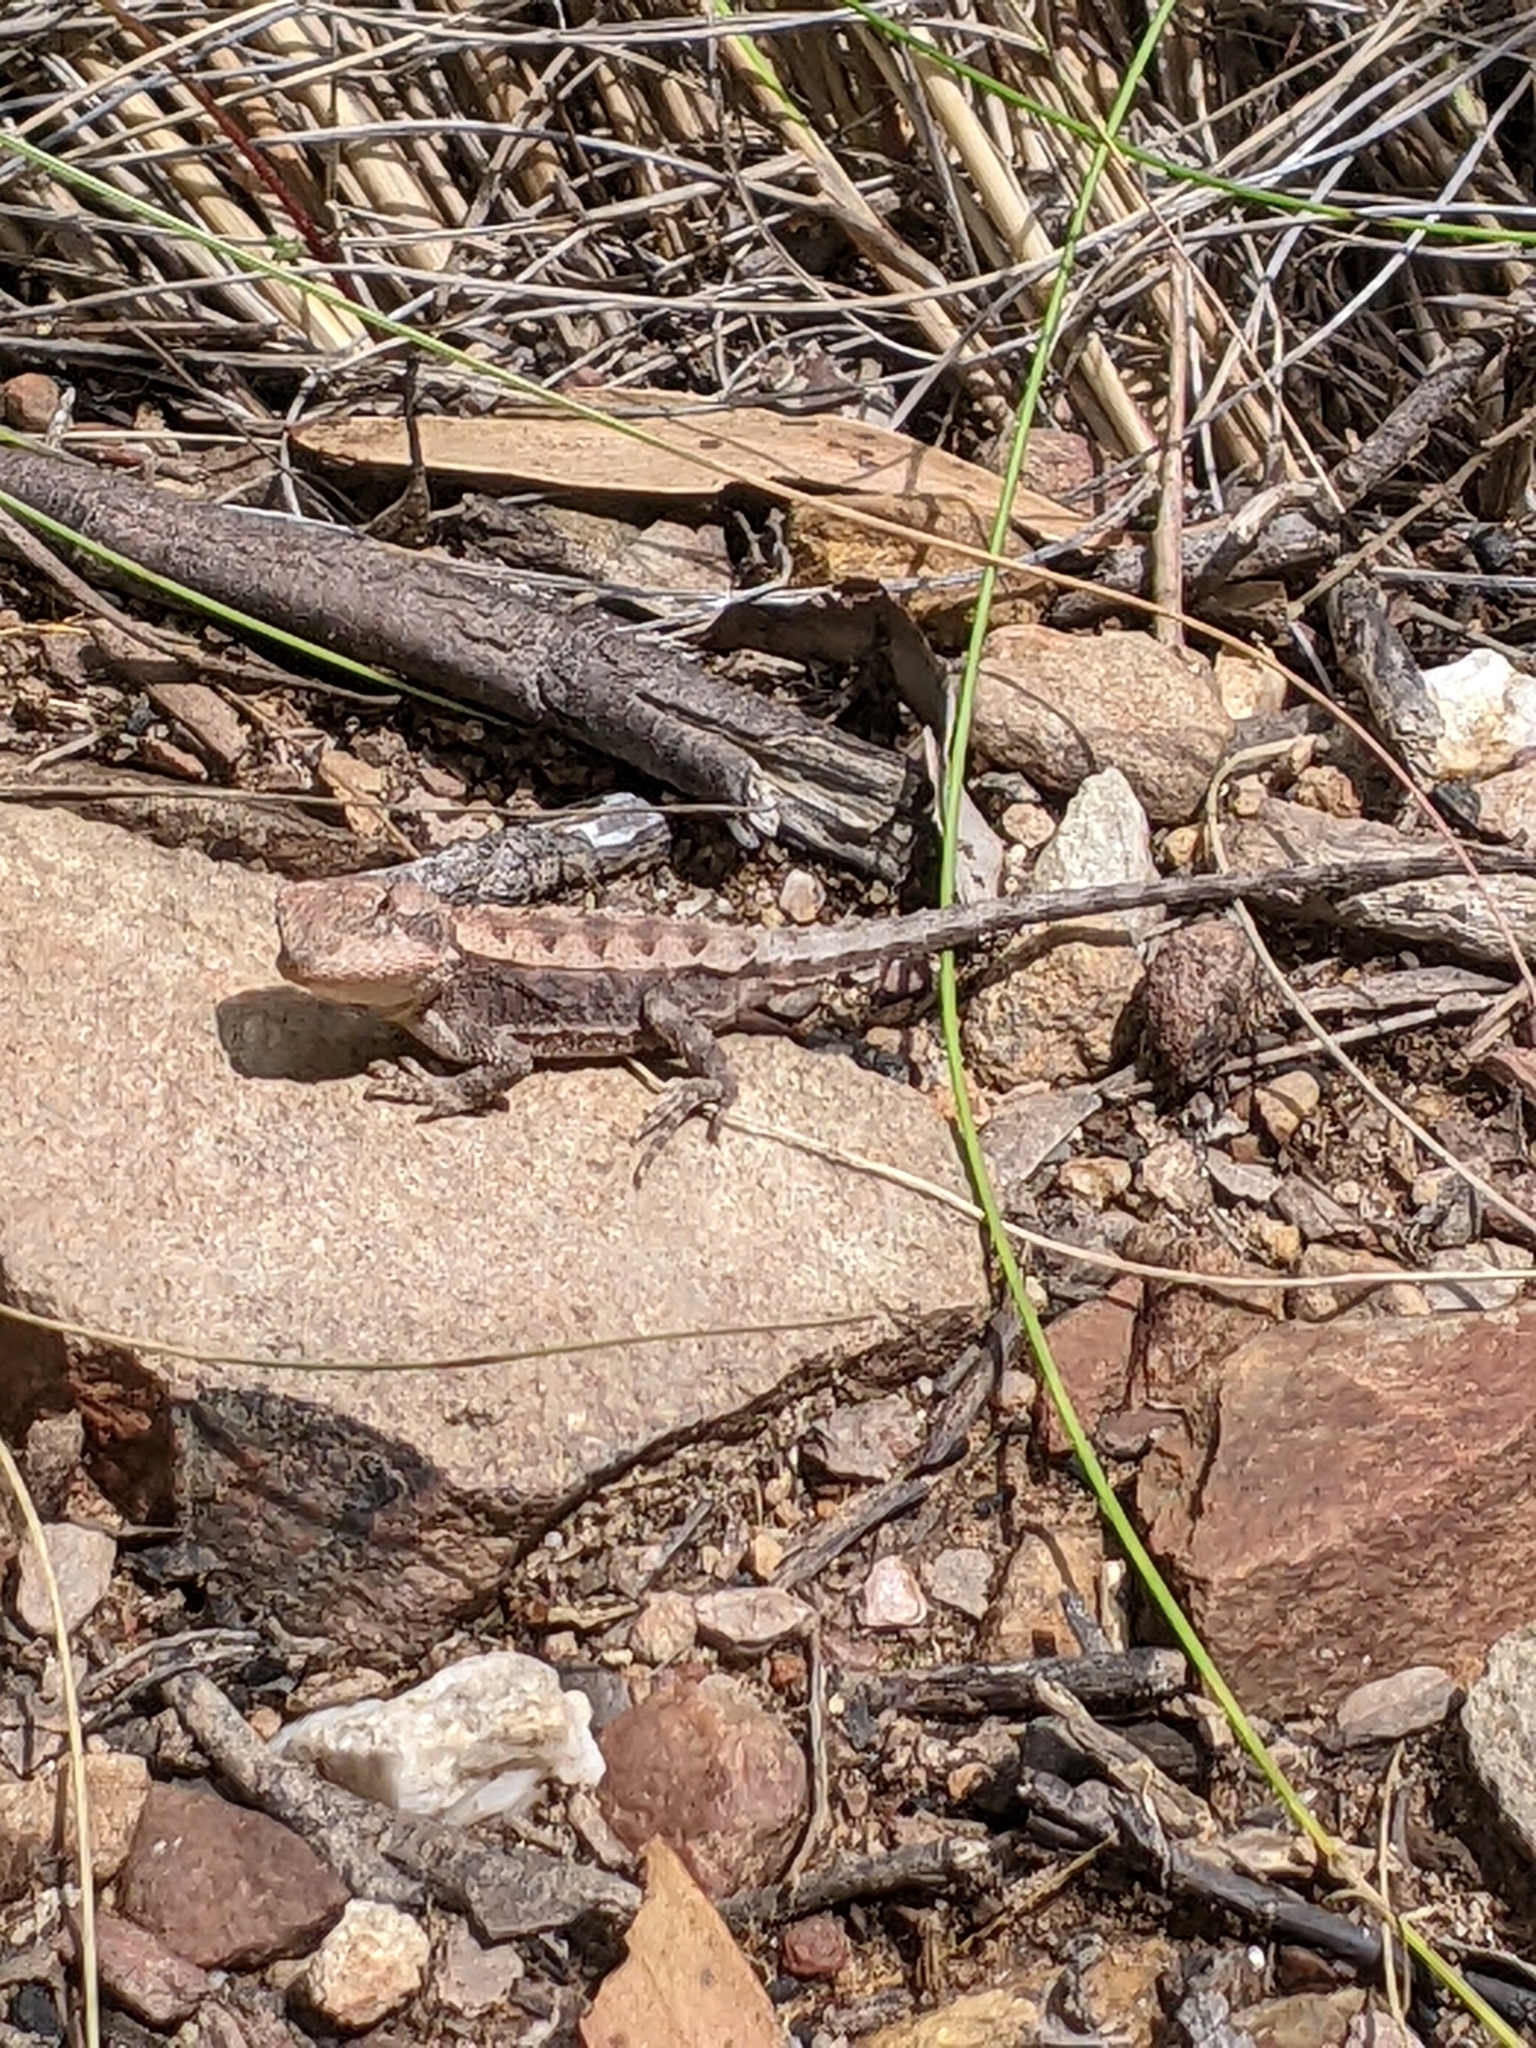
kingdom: Animalia
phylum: Chordata
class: Squamata
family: Agamidae
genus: Rankinia
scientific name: Rankinia diemensis
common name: Mountain dragon
